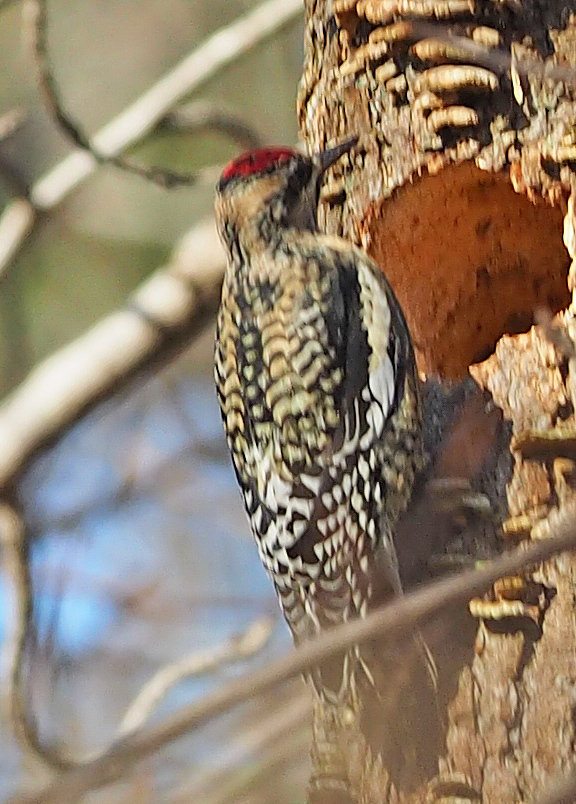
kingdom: Animalia
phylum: Chordata
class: Aves
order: Piciformes
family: Picidae
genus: Sphyrapicus
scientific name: Sphyrapicus varius
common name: Yellow-bellied sapsucker
